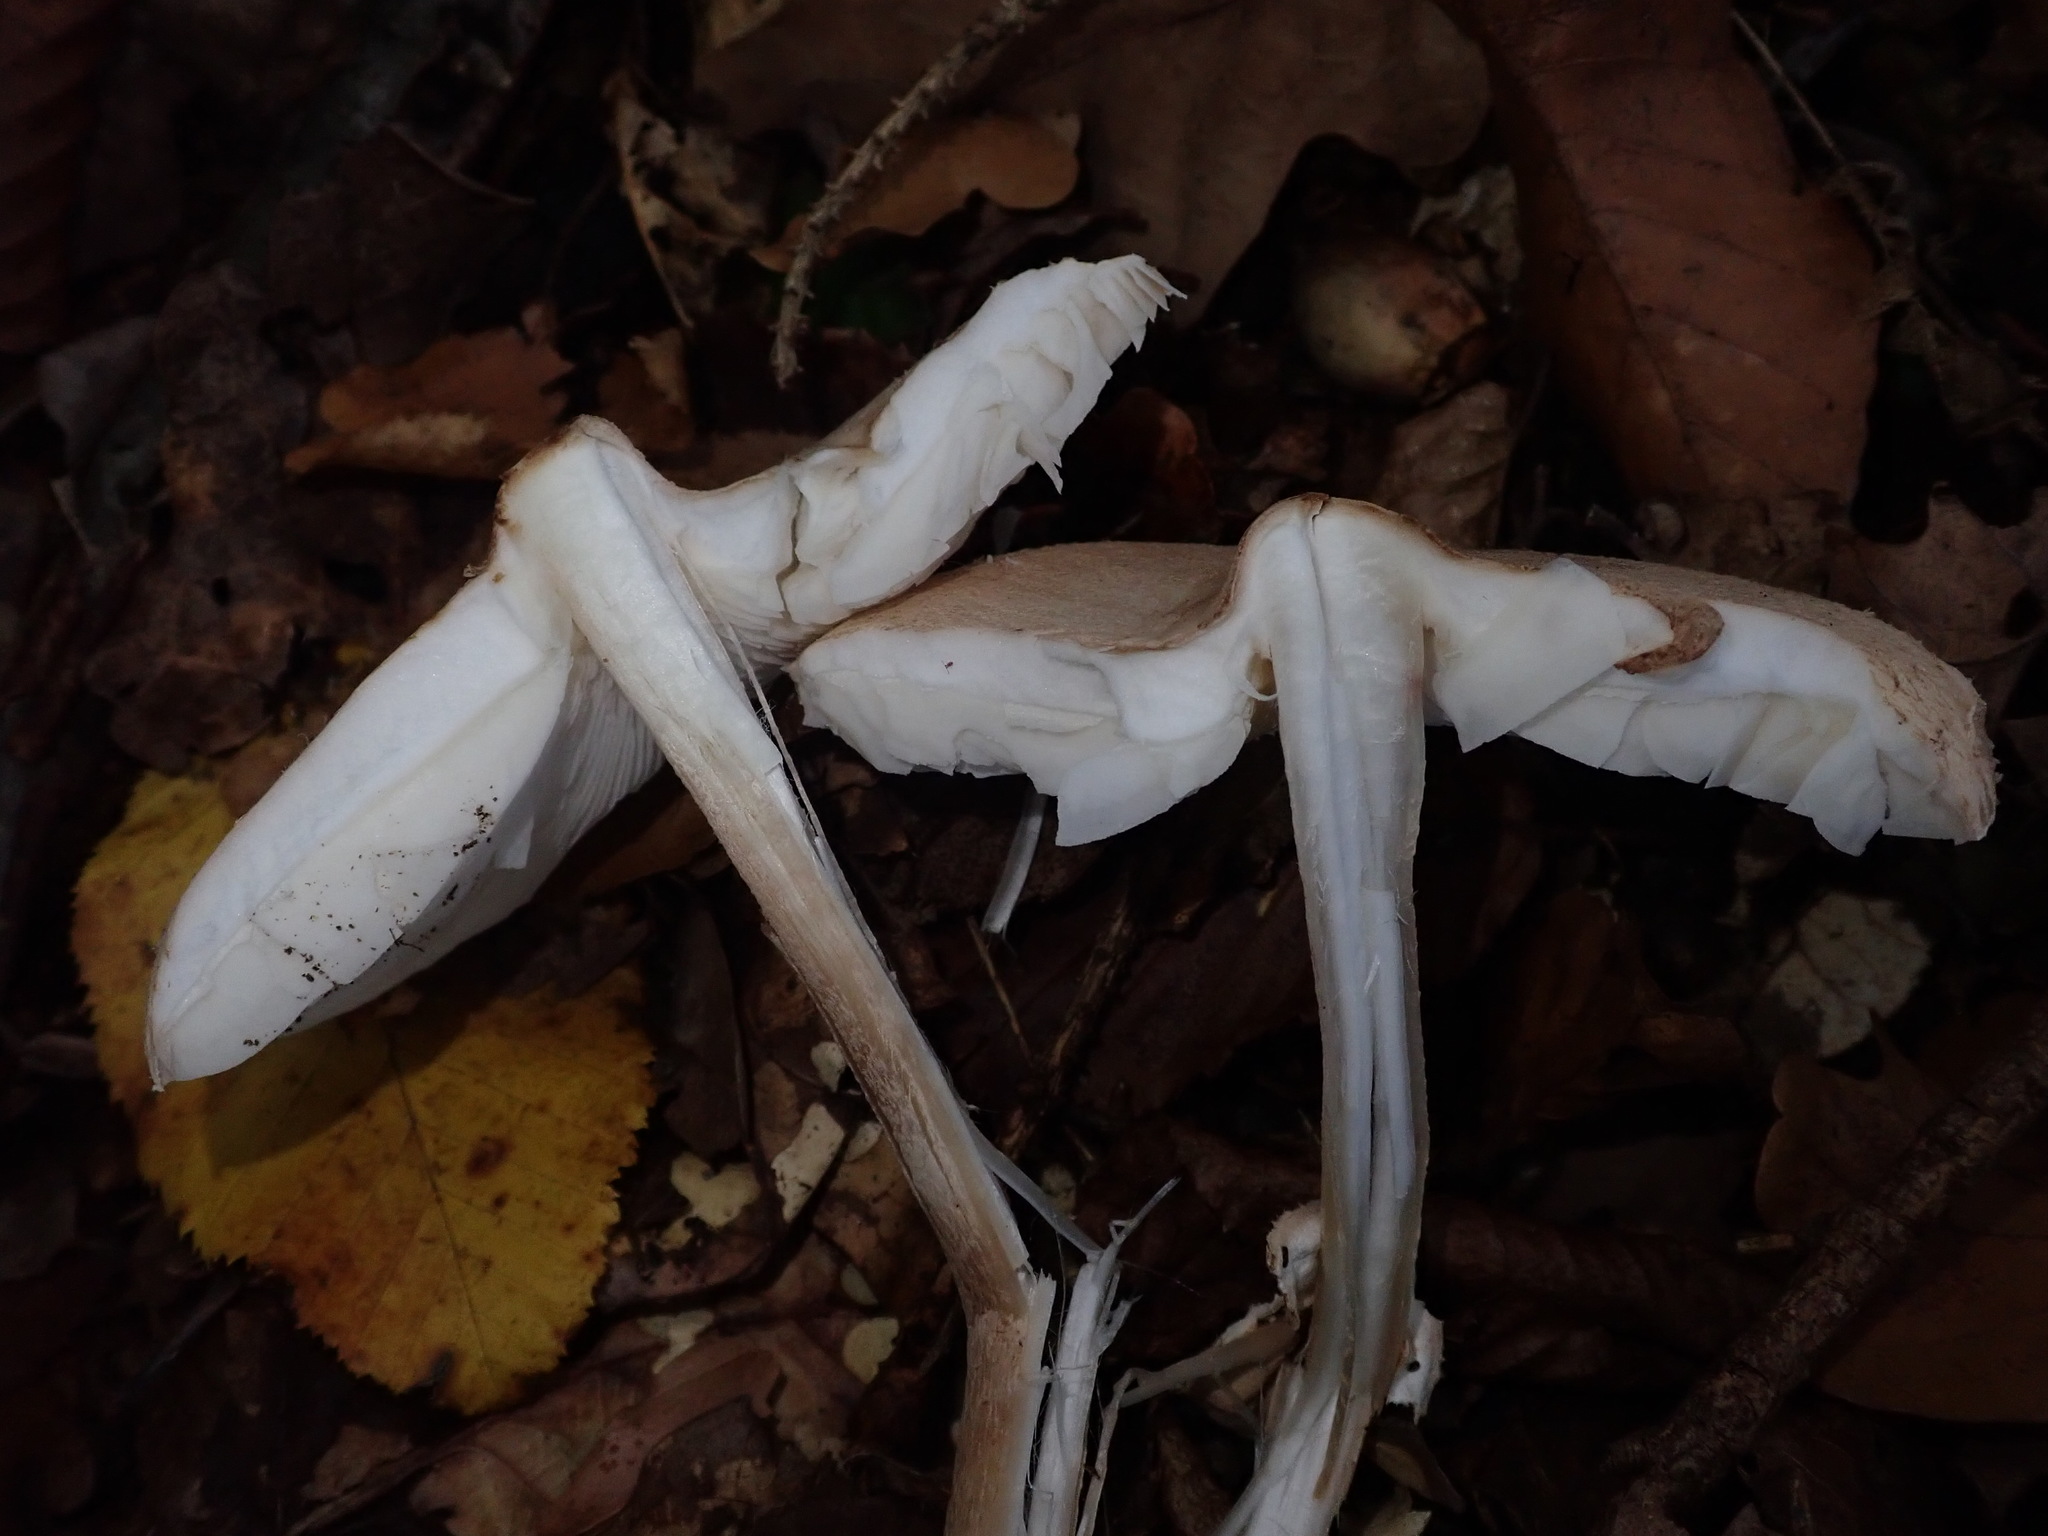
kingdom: Fungi
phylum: Basidiomycota
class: Agaricomycetes
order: Agaricales
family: Agaricaceae
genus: Macrolepiota
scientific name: Macrolepiota mastoidea
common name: Slender parasol
